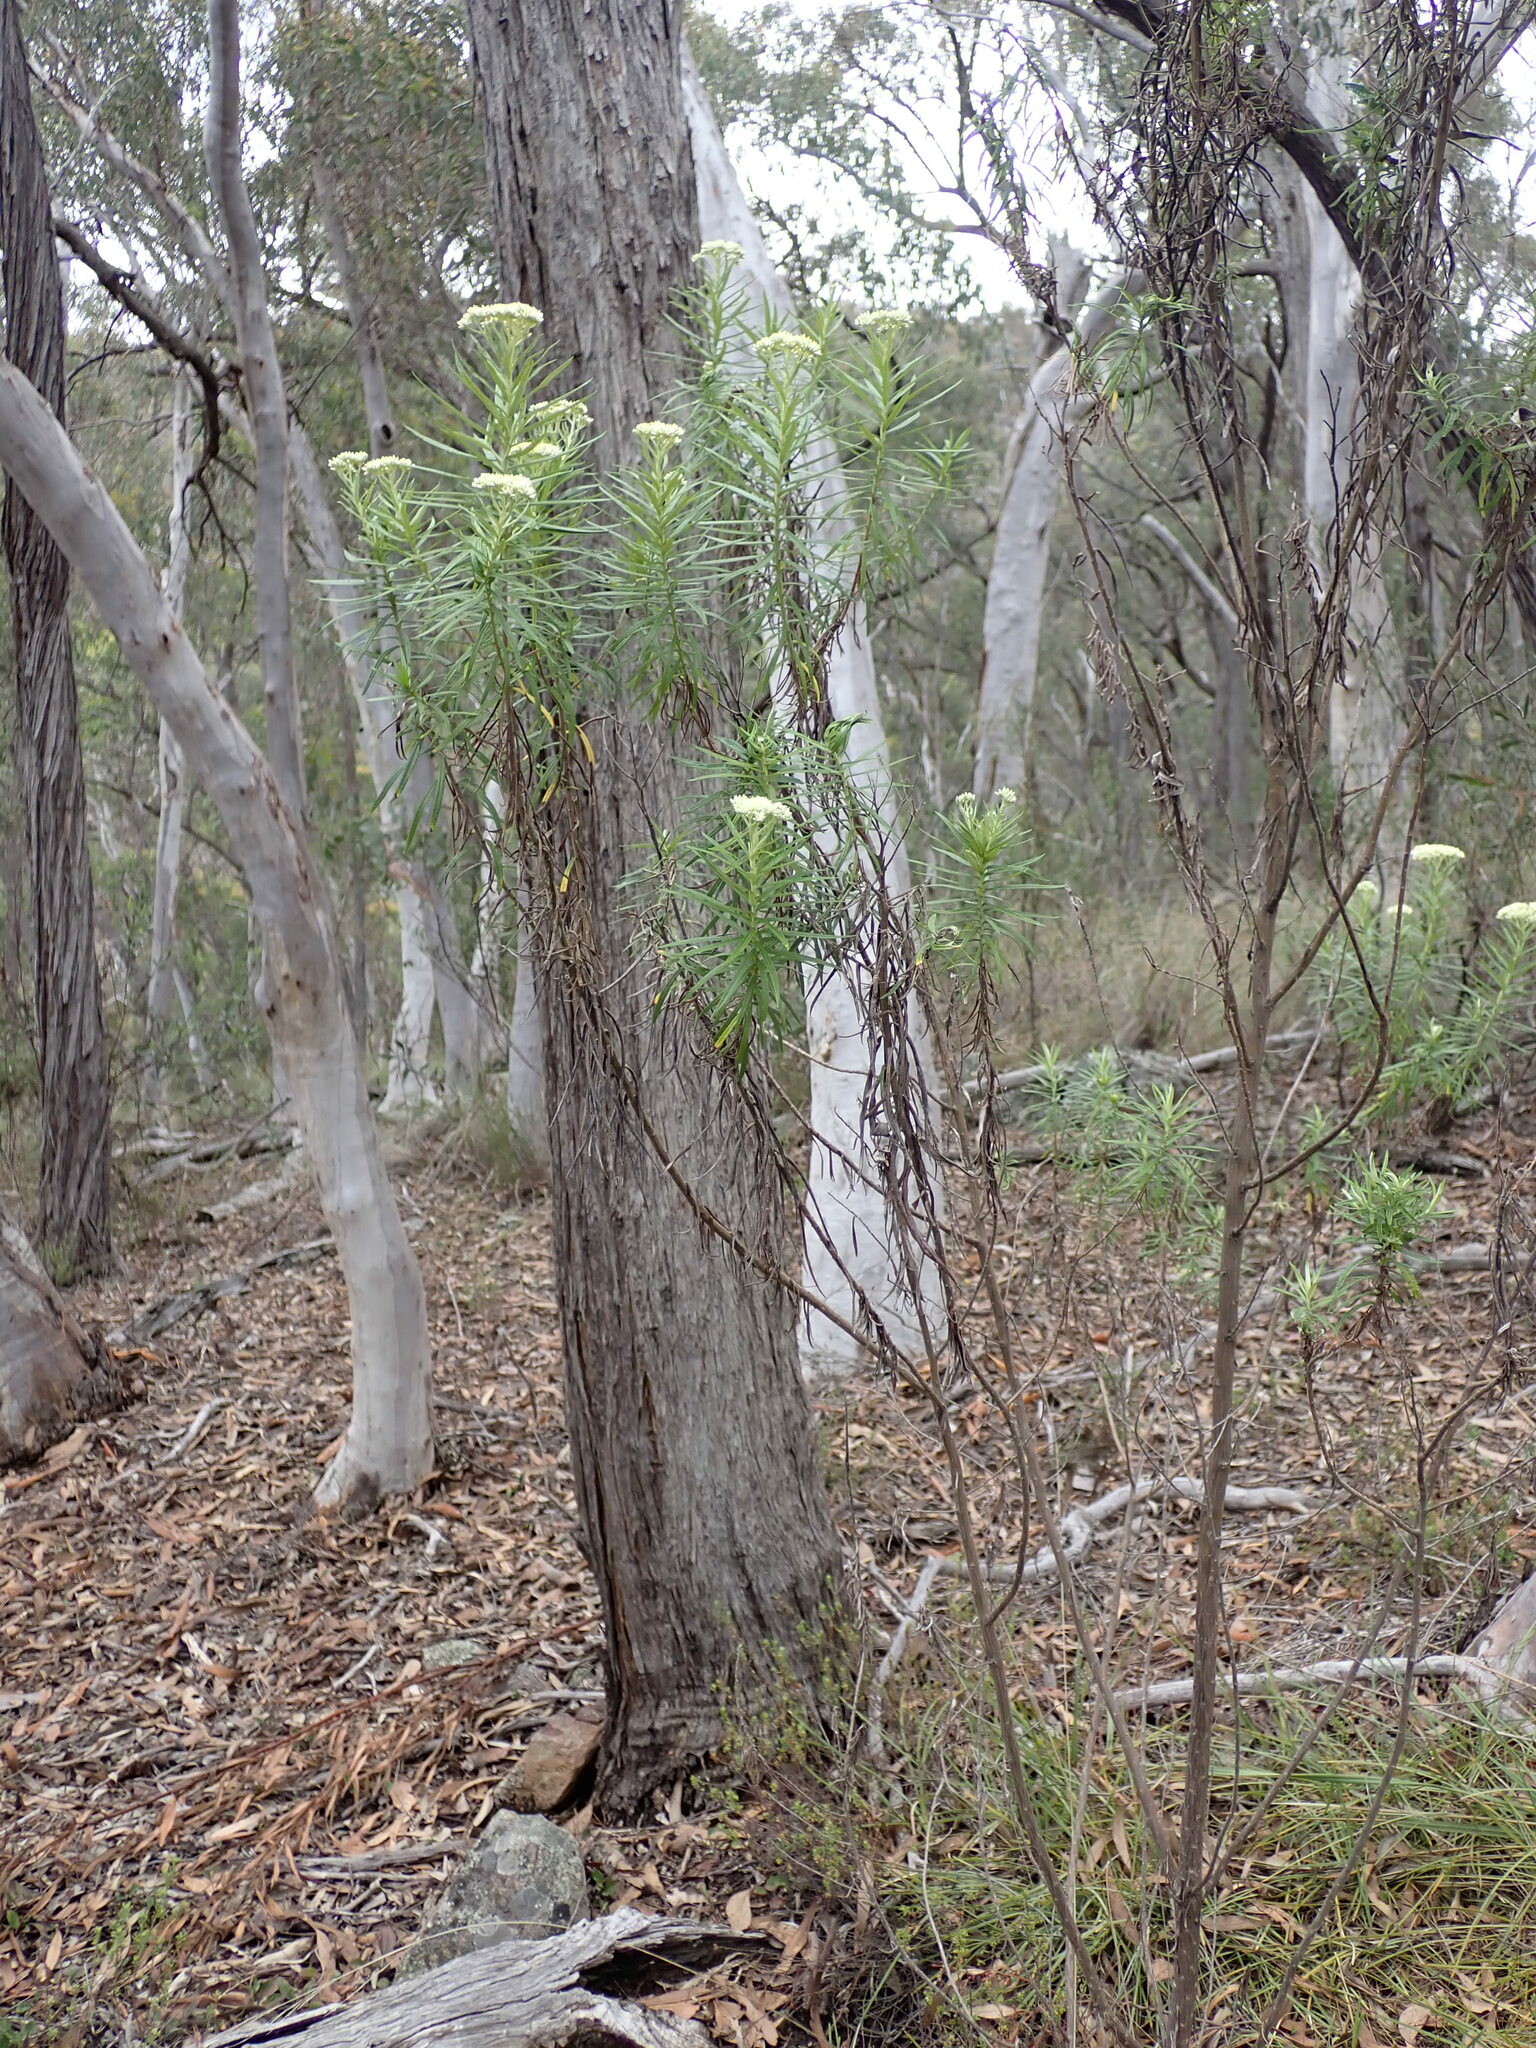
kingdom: Plantae
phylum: Tracheophyta
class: Magnoliopsida
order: Asterales
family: Asteraceae
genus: Cassinia
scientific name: Cassinia longifolia
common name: Longleaf-dogwood
